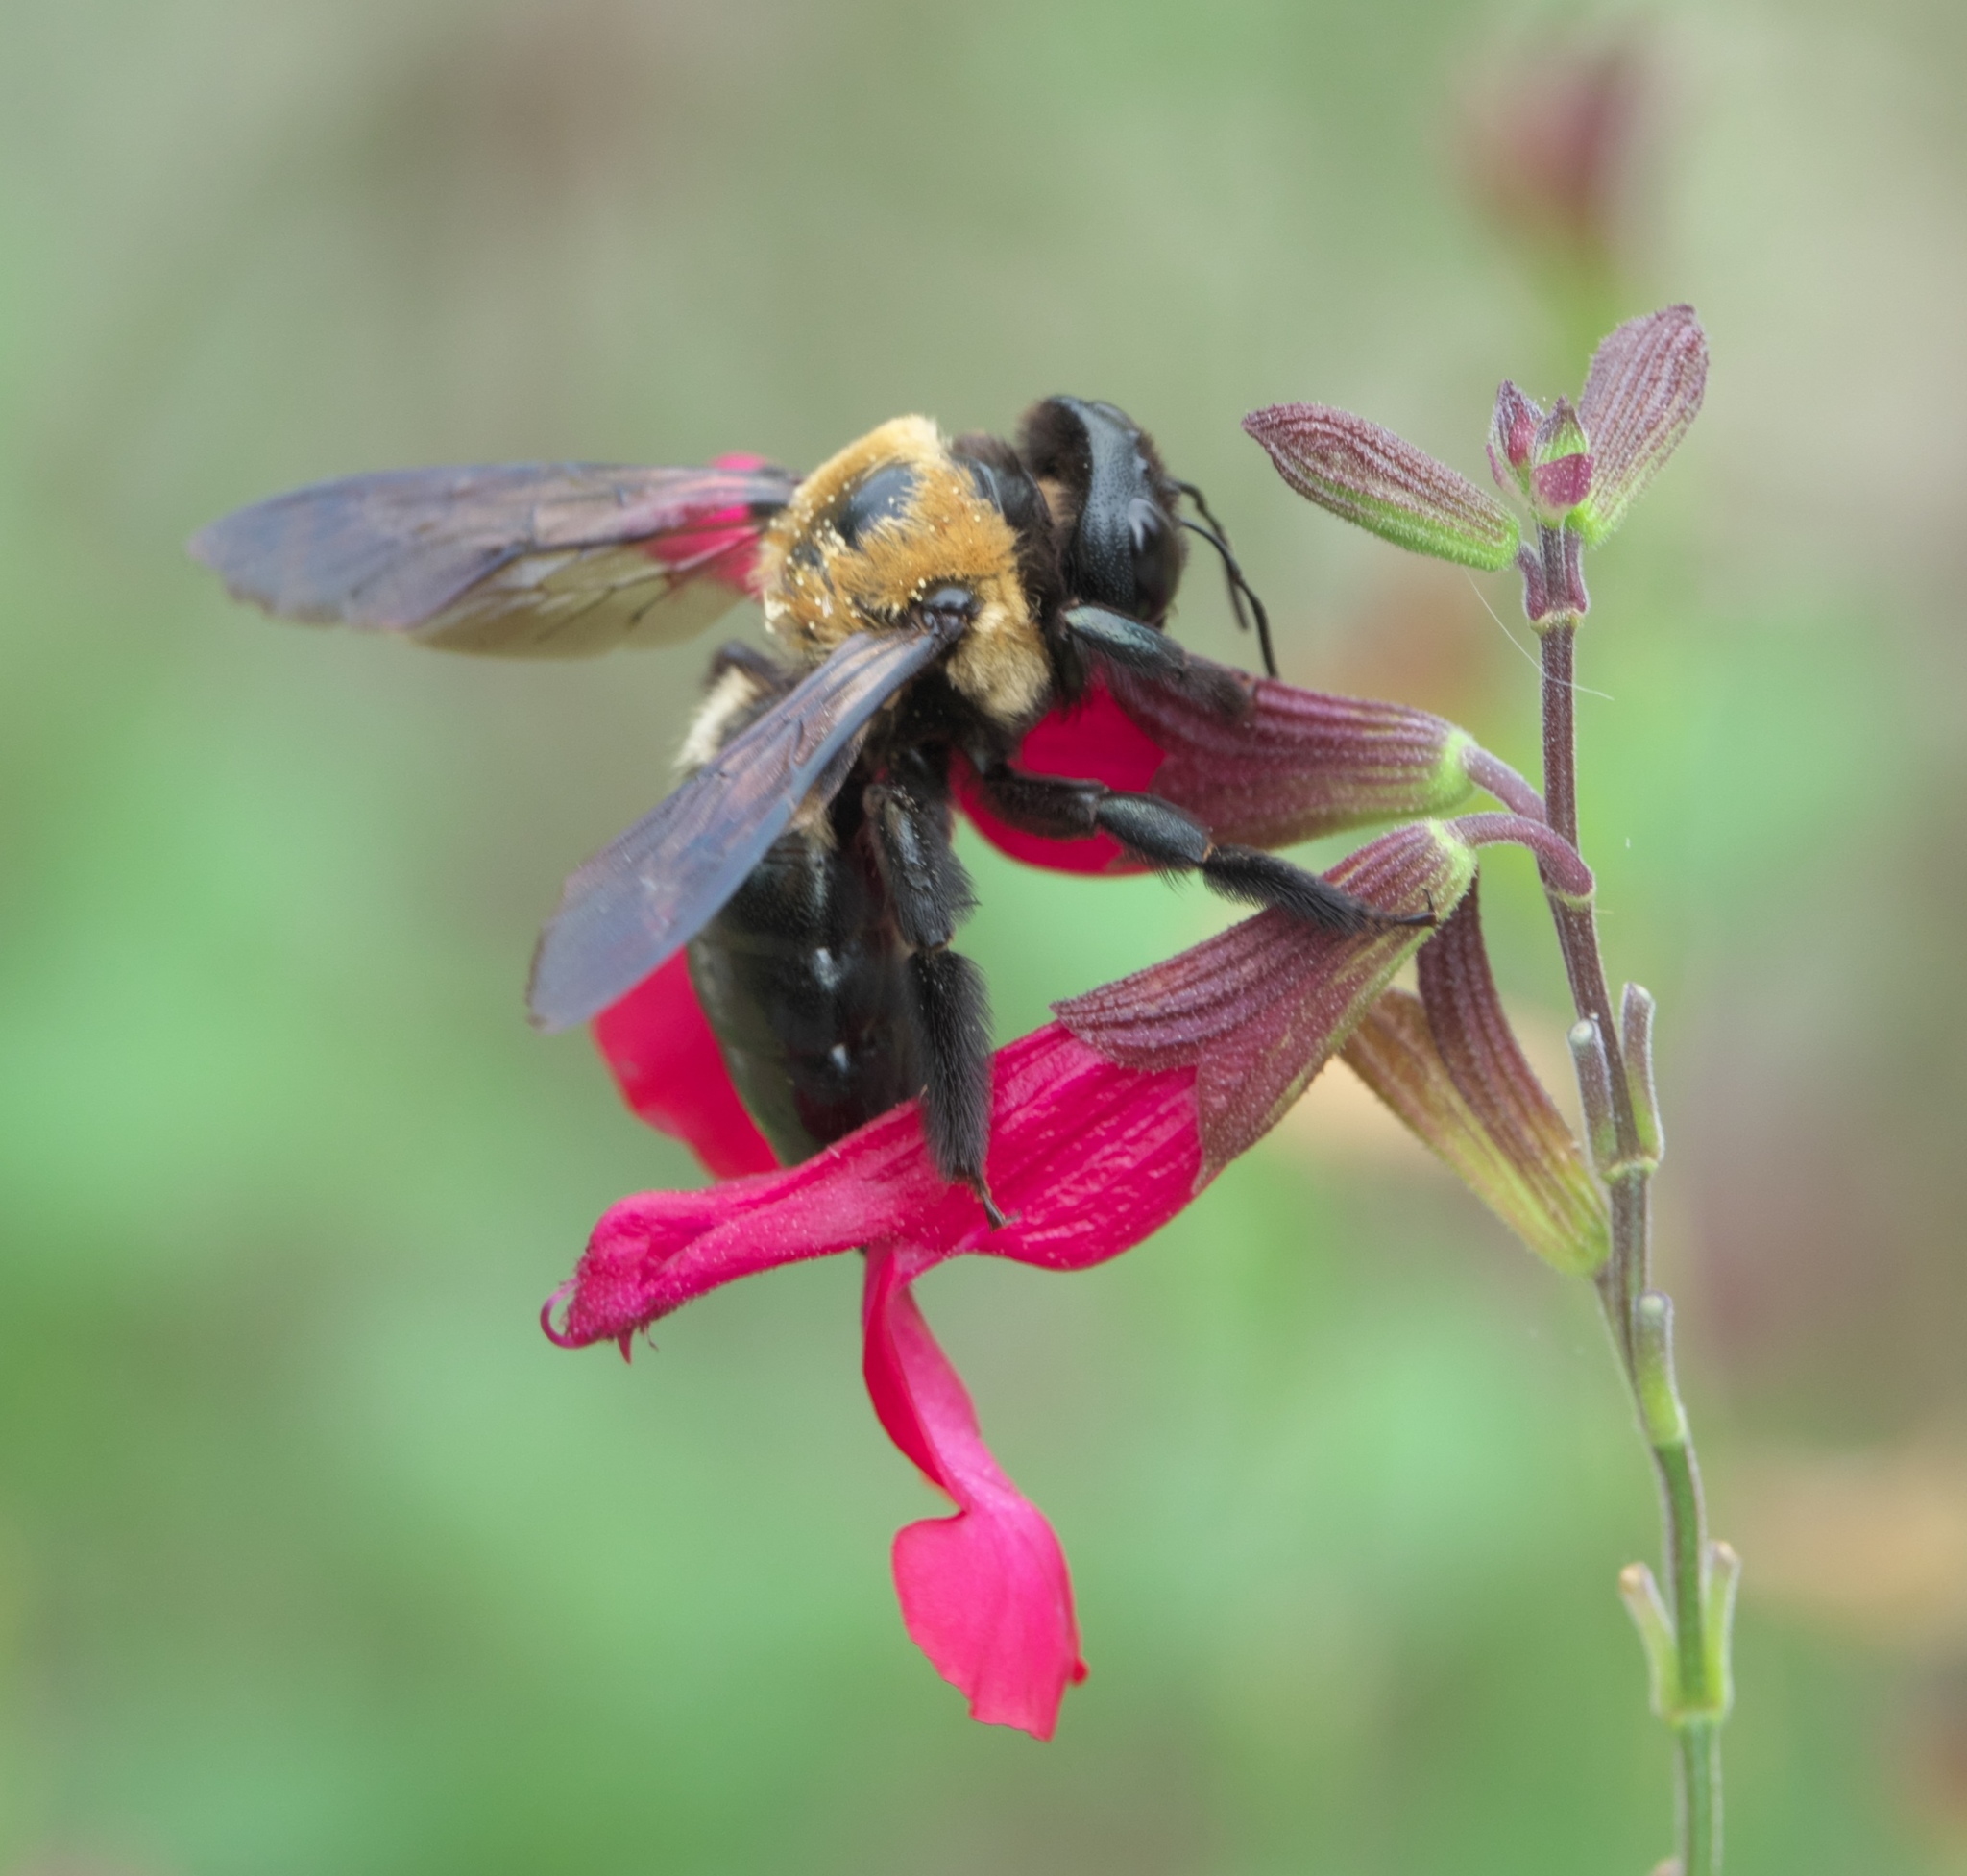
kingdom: Animalia
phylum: Arthropoda
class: Insecta
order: Hymenoptera
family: Apidae
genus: Xylocopa
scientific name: Xylocopa virginica
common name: Carpenter bee
